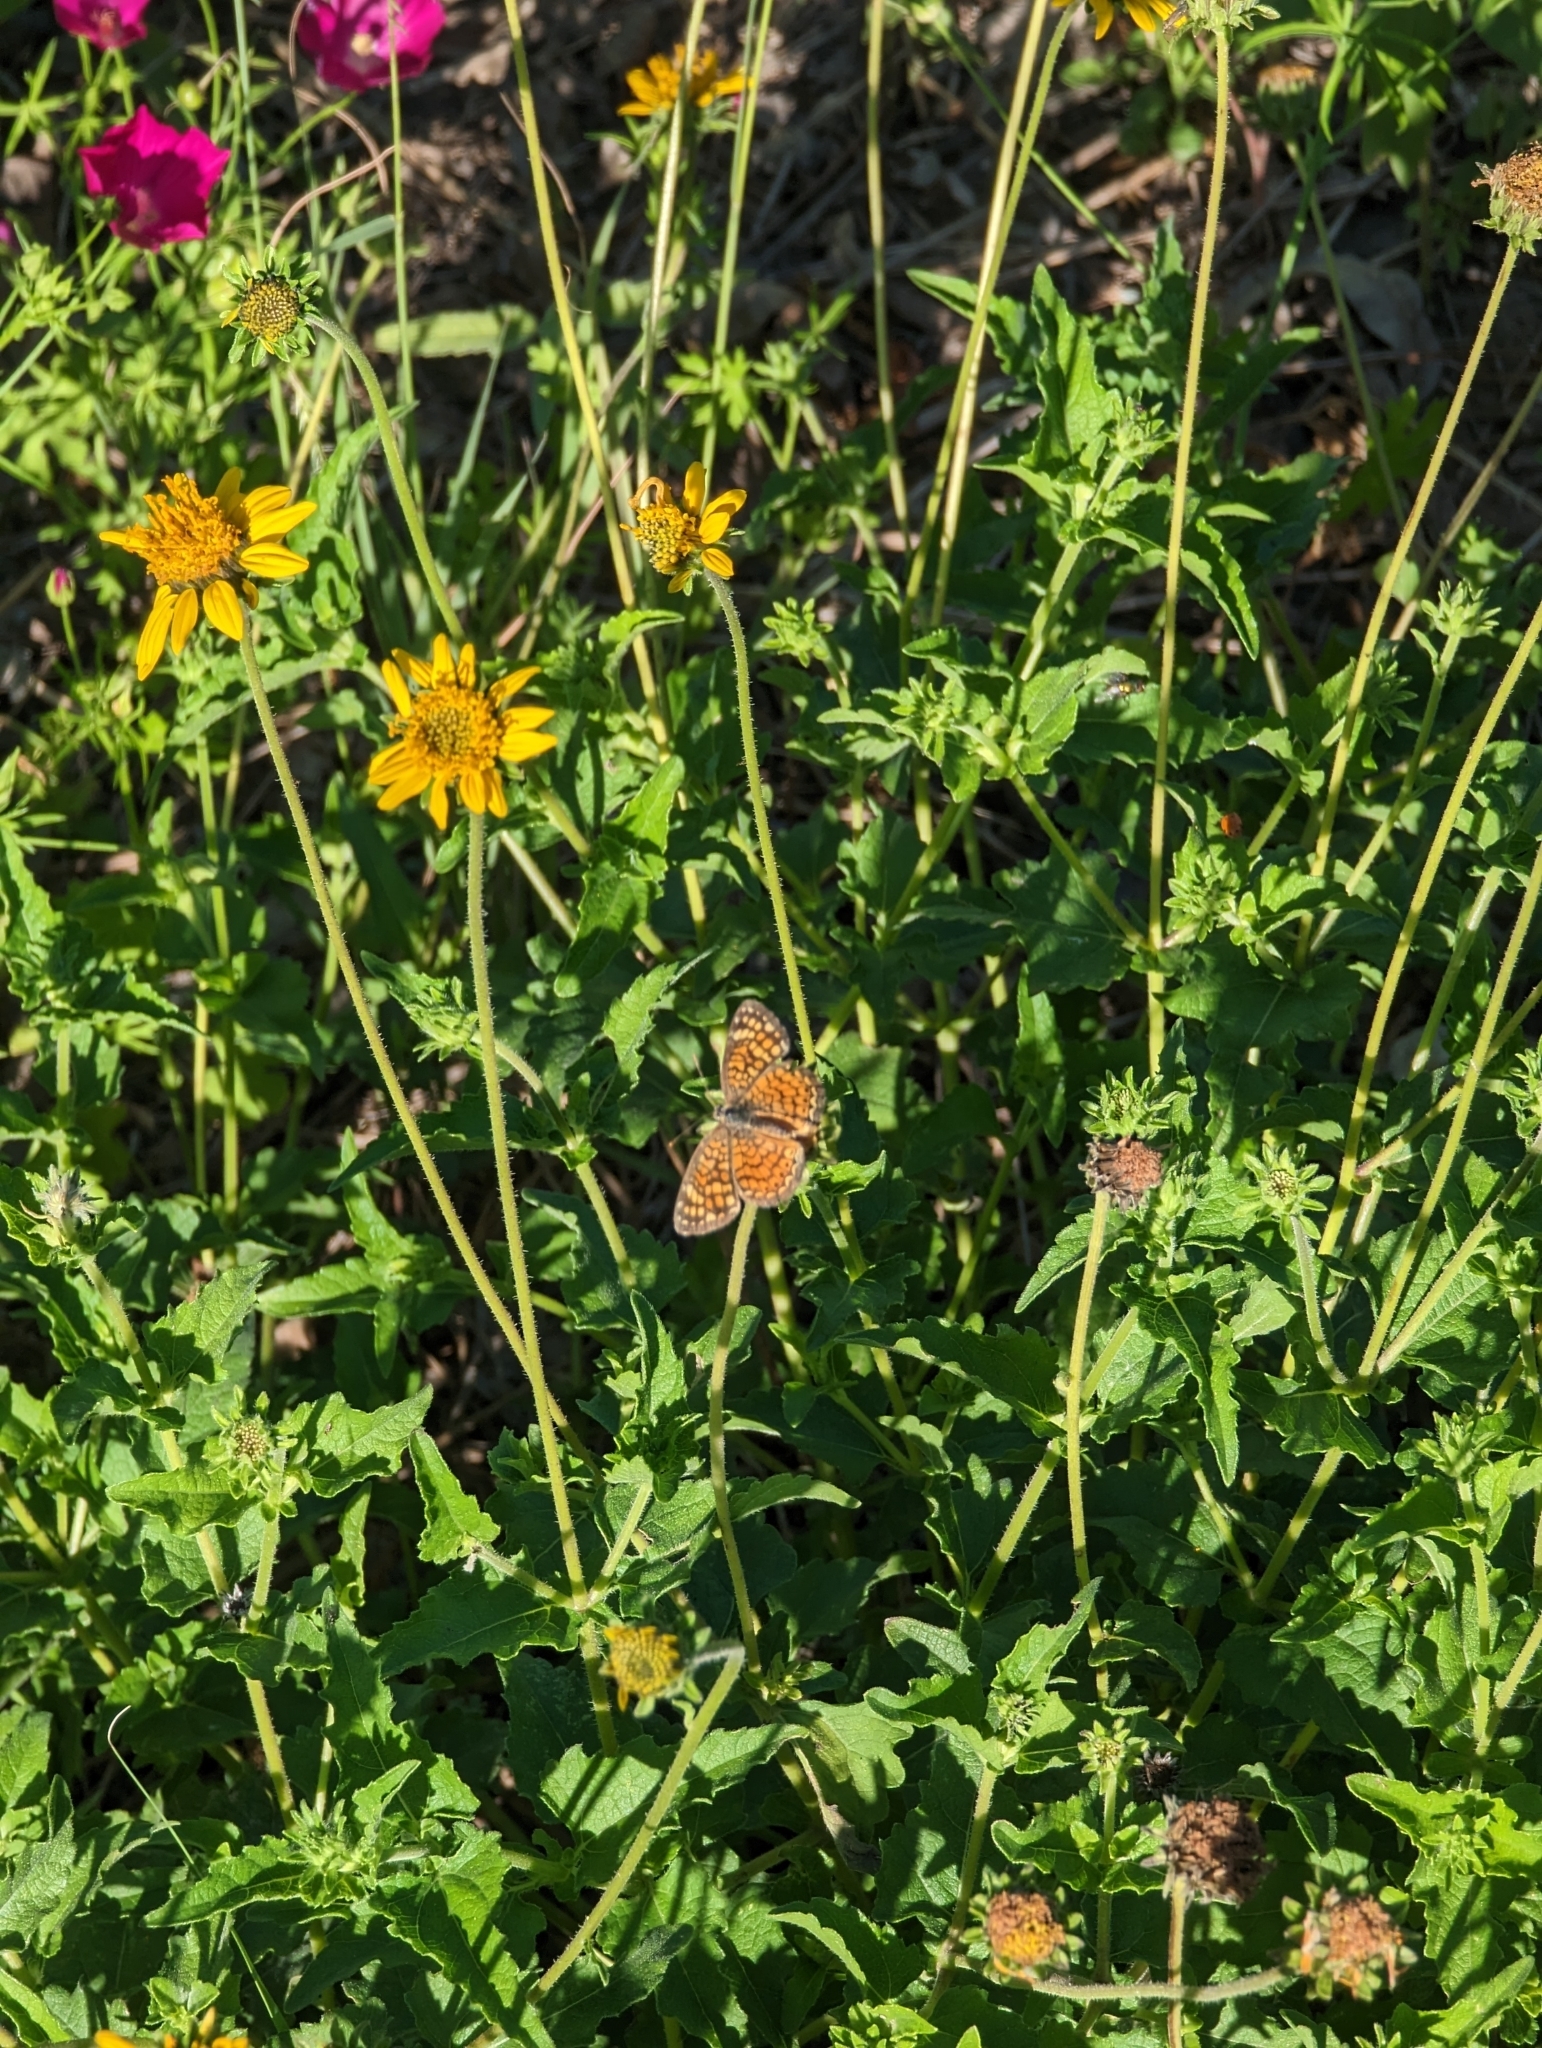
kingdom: Animalia
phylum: Arthropoda
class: Insecta
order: Lepidoptera
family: Nymphalidae
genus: Phyciodes
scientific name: Phyciodes vesta
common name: Vesta crescent
